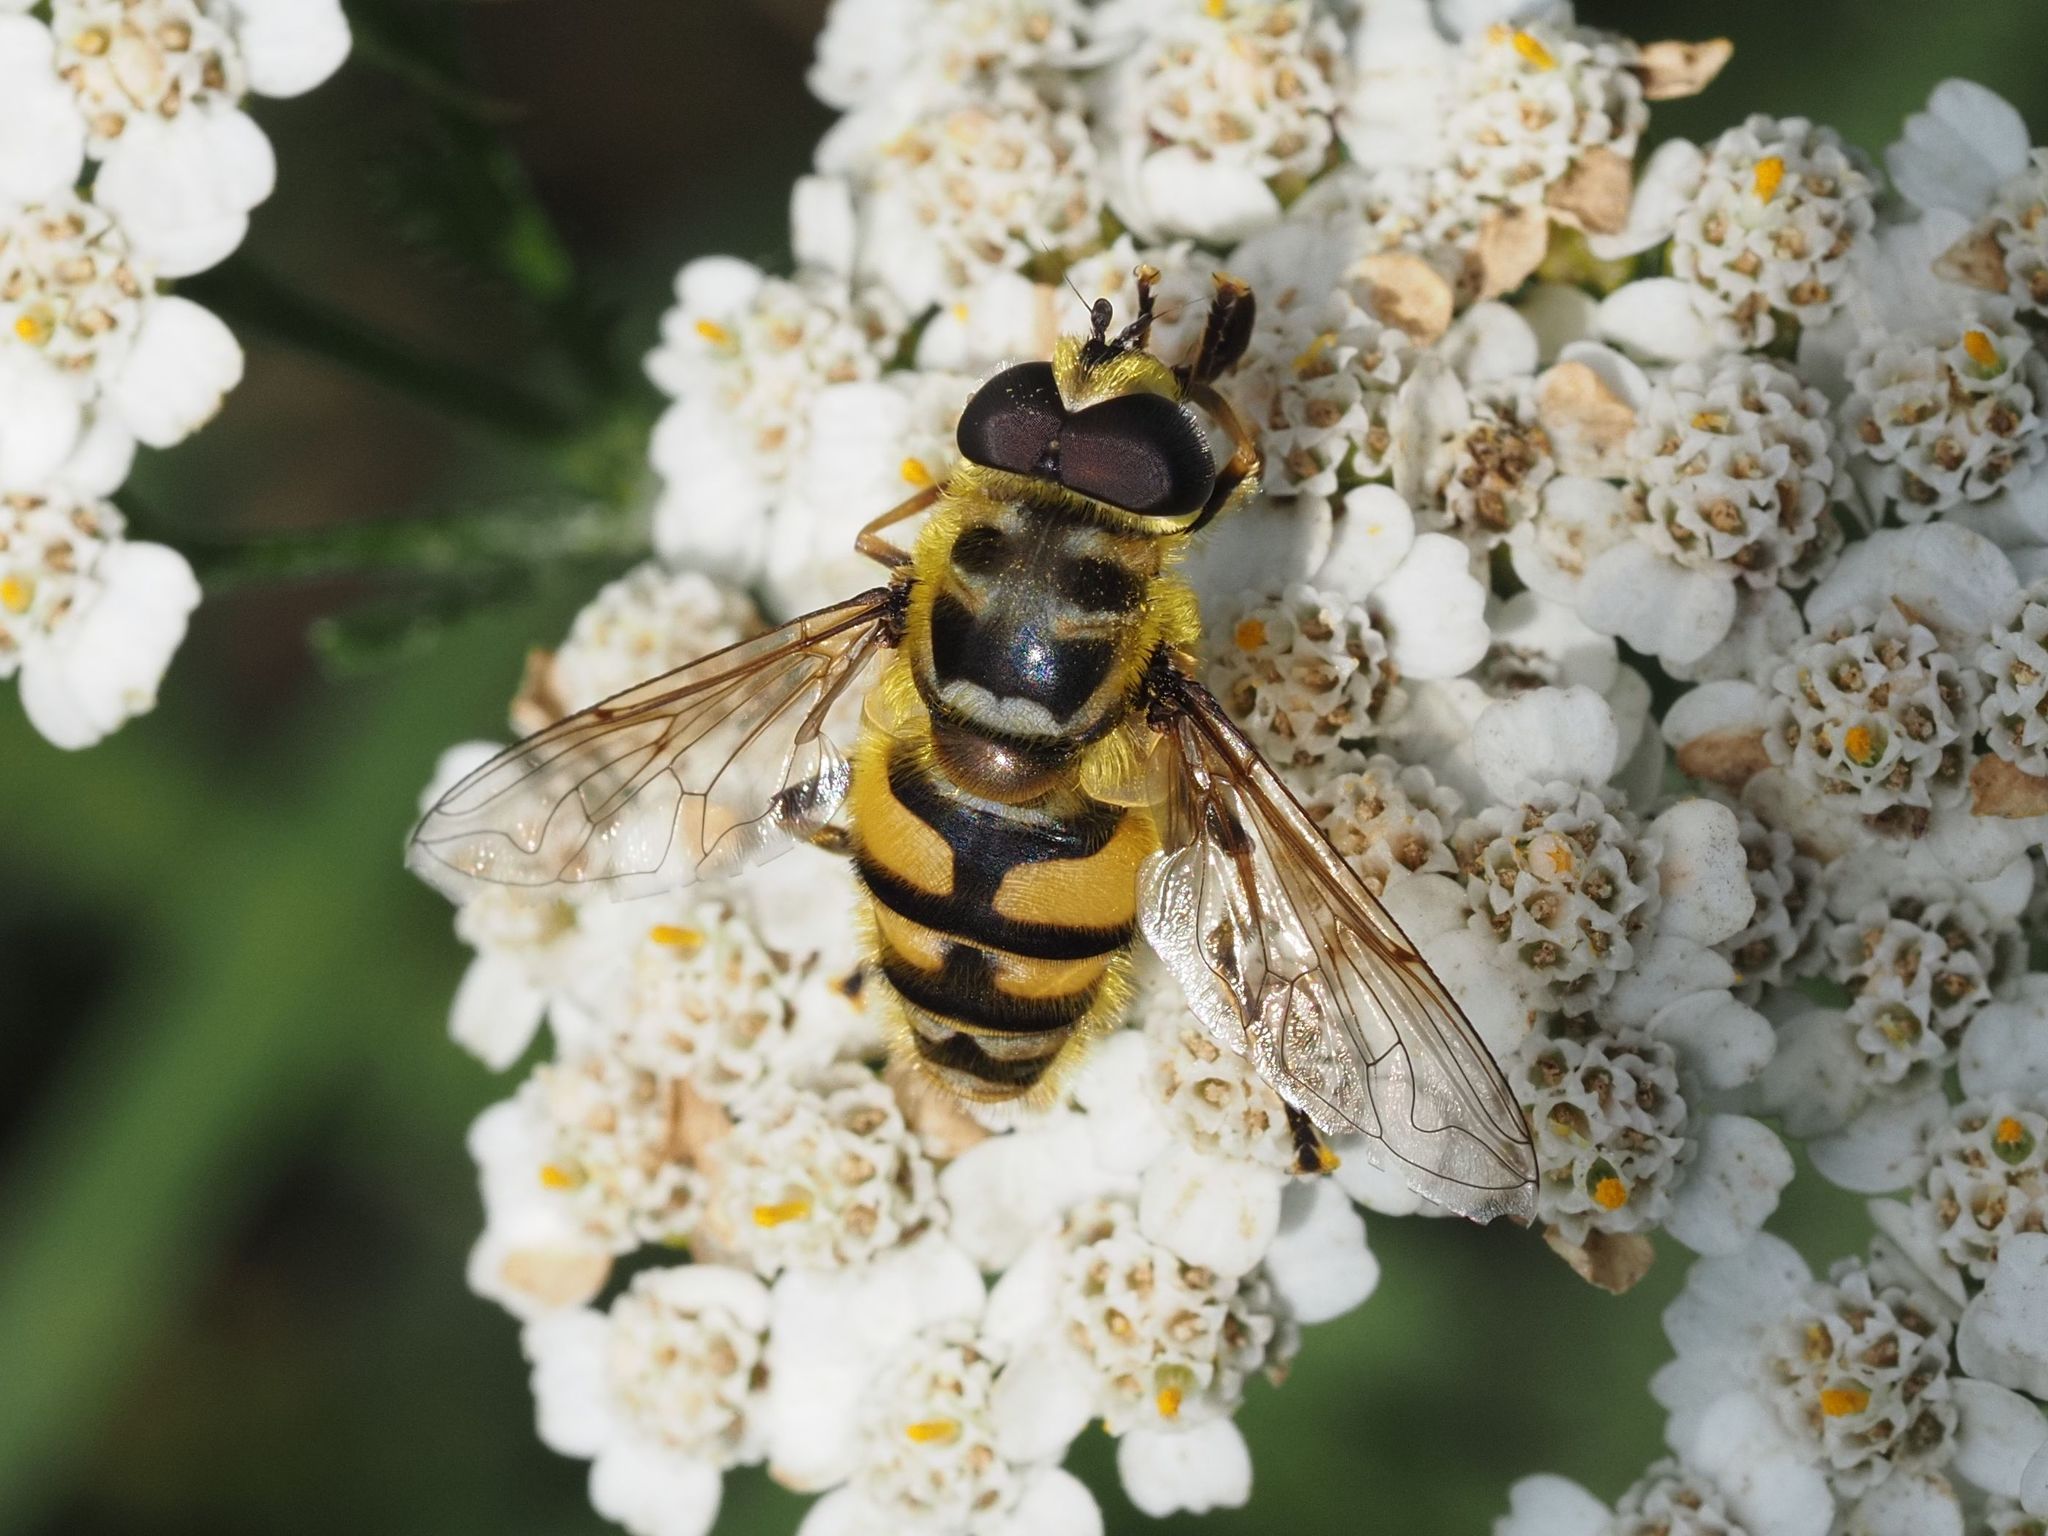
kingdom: Animalia
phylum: Arthropoda
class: Insecta
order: Diptera
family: Syrphidae
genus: Myathropa
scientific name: Myathropa florea
